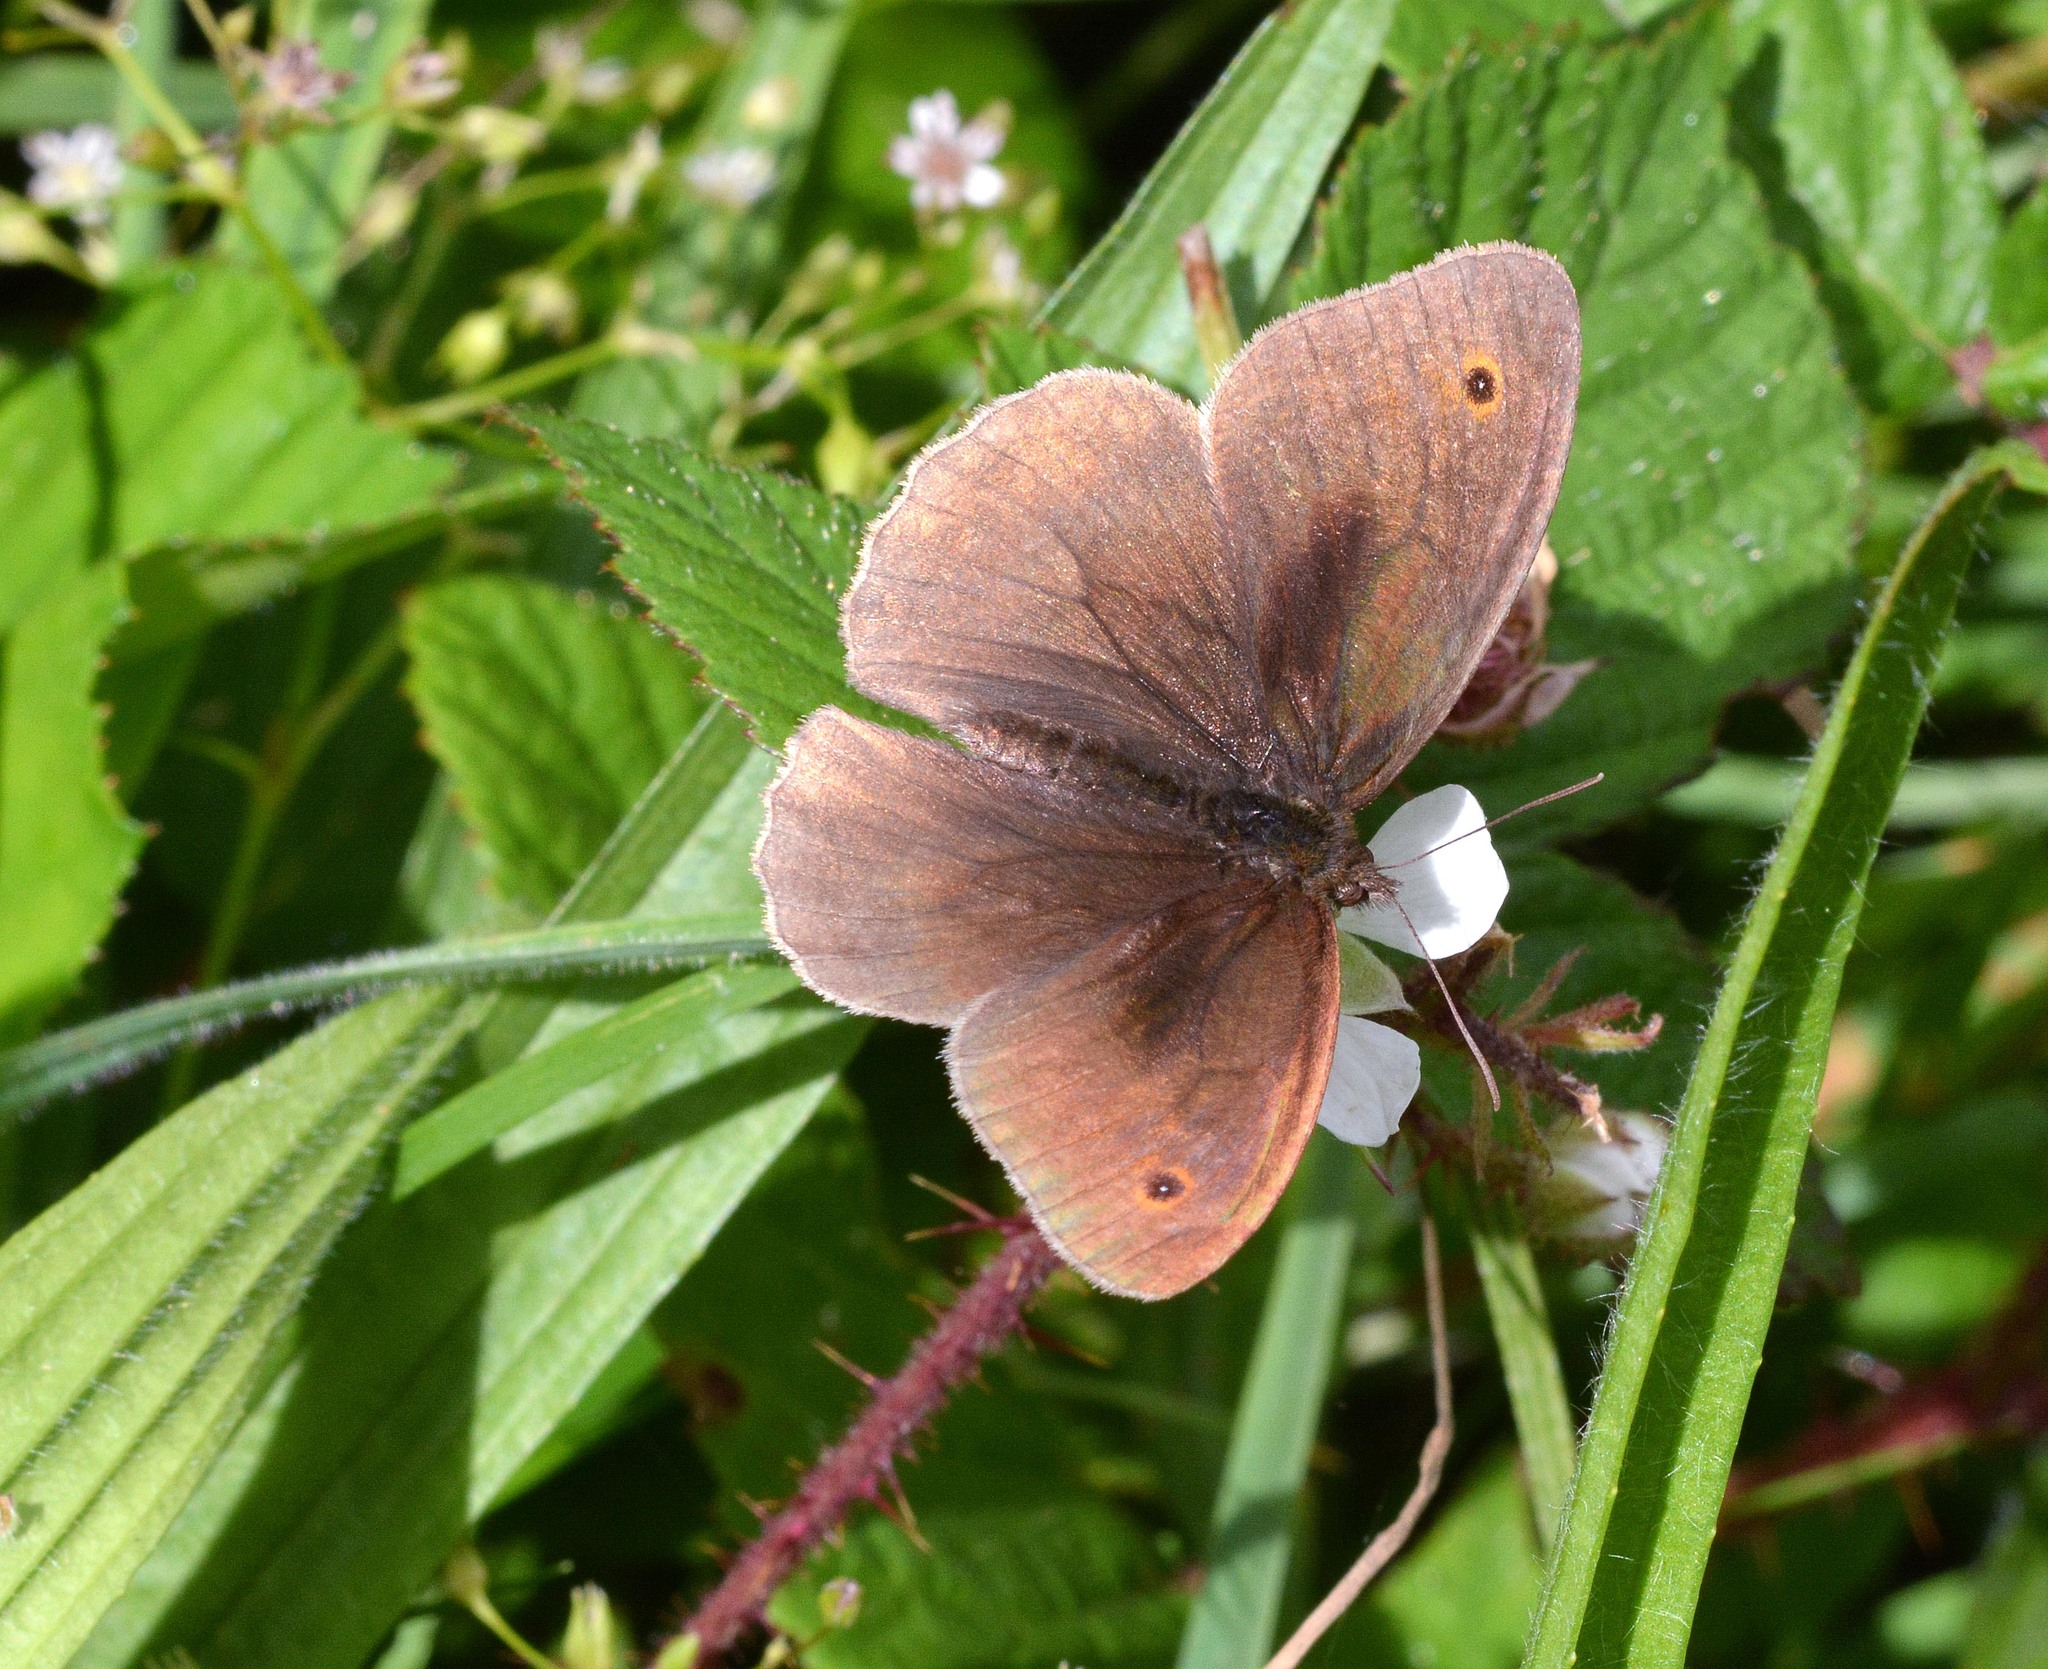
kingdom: Animalia
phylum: Arthropoda
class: Insecta
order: Lepidoptera
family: Nymphalidae
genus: Maniola
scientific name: Maniola jurtina
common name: Meadow brown
